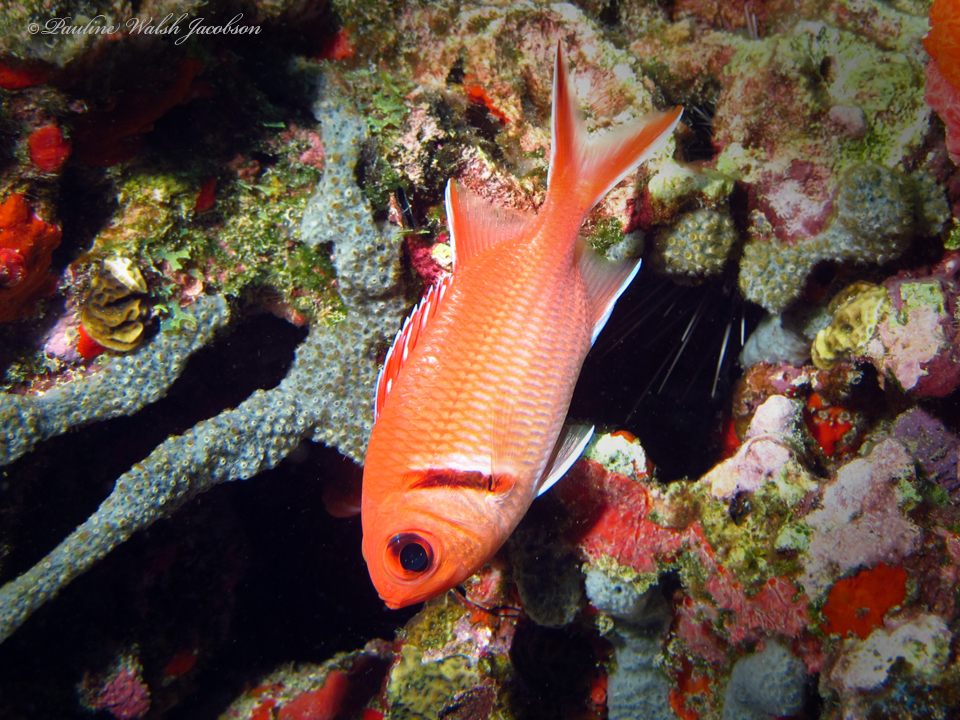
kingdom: Animalia
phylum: Chordata
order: Beryciformes
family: Holocentridae
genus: Myripristis
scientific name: Myripristis jacobus
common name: Blackbar soldierfish
